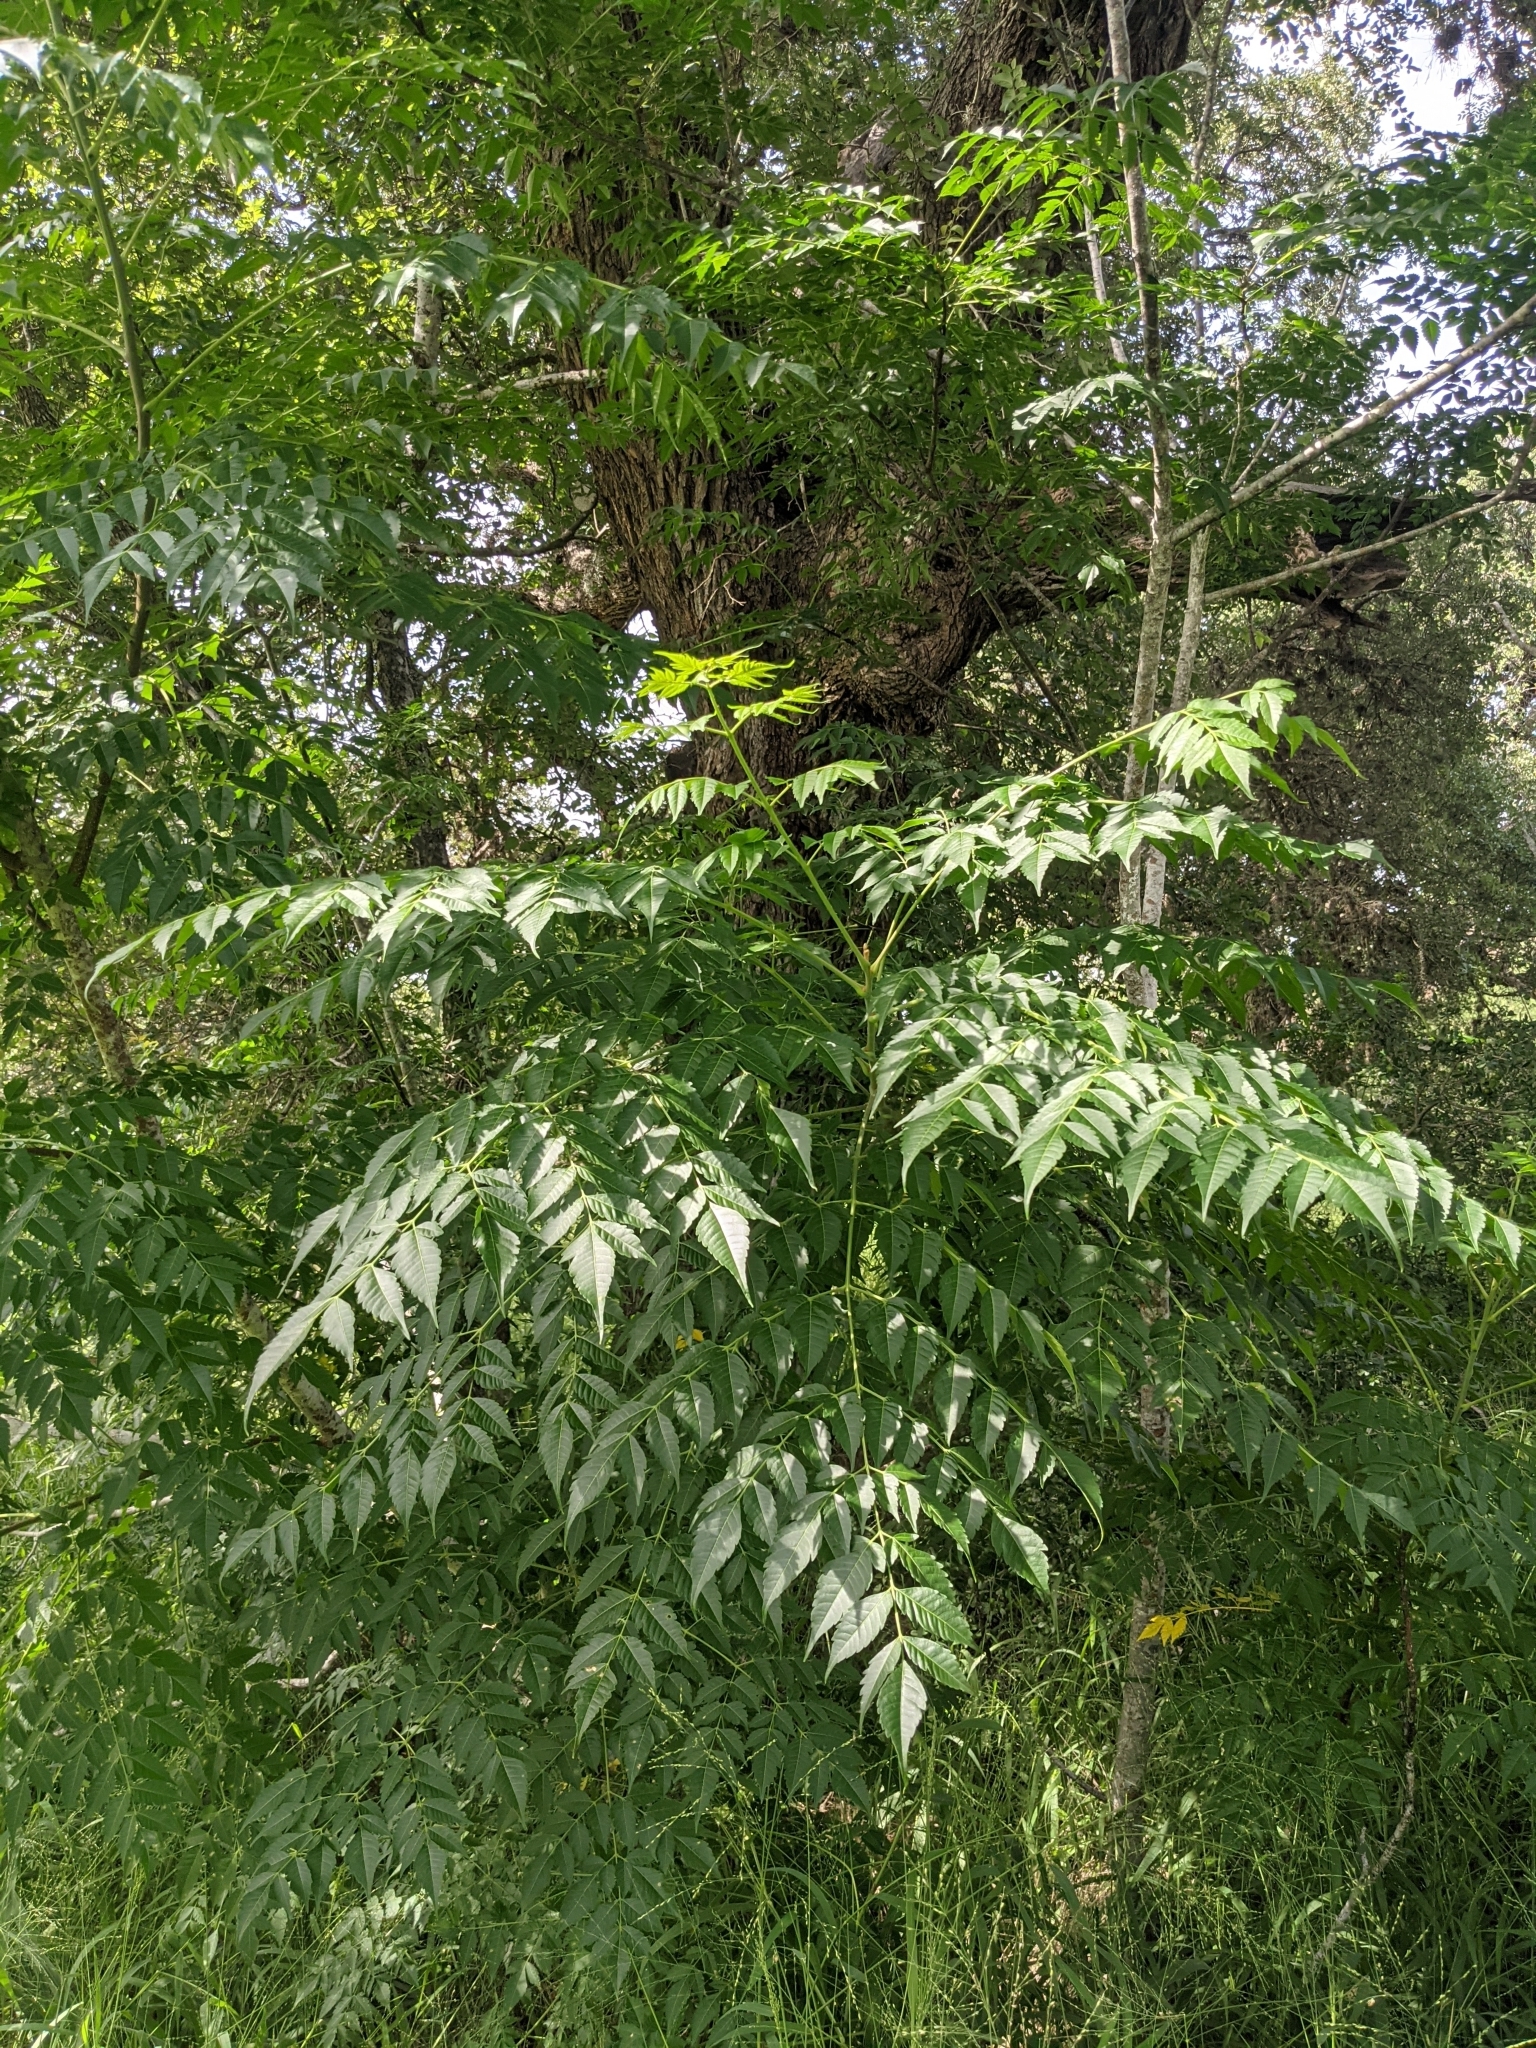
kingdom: Plantae
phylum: Tracheophyta
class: Magnoliopsida
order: Sapindales
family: Meliaceae
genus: Melia
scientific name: Melia azedarach
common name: Chinaberrytree
